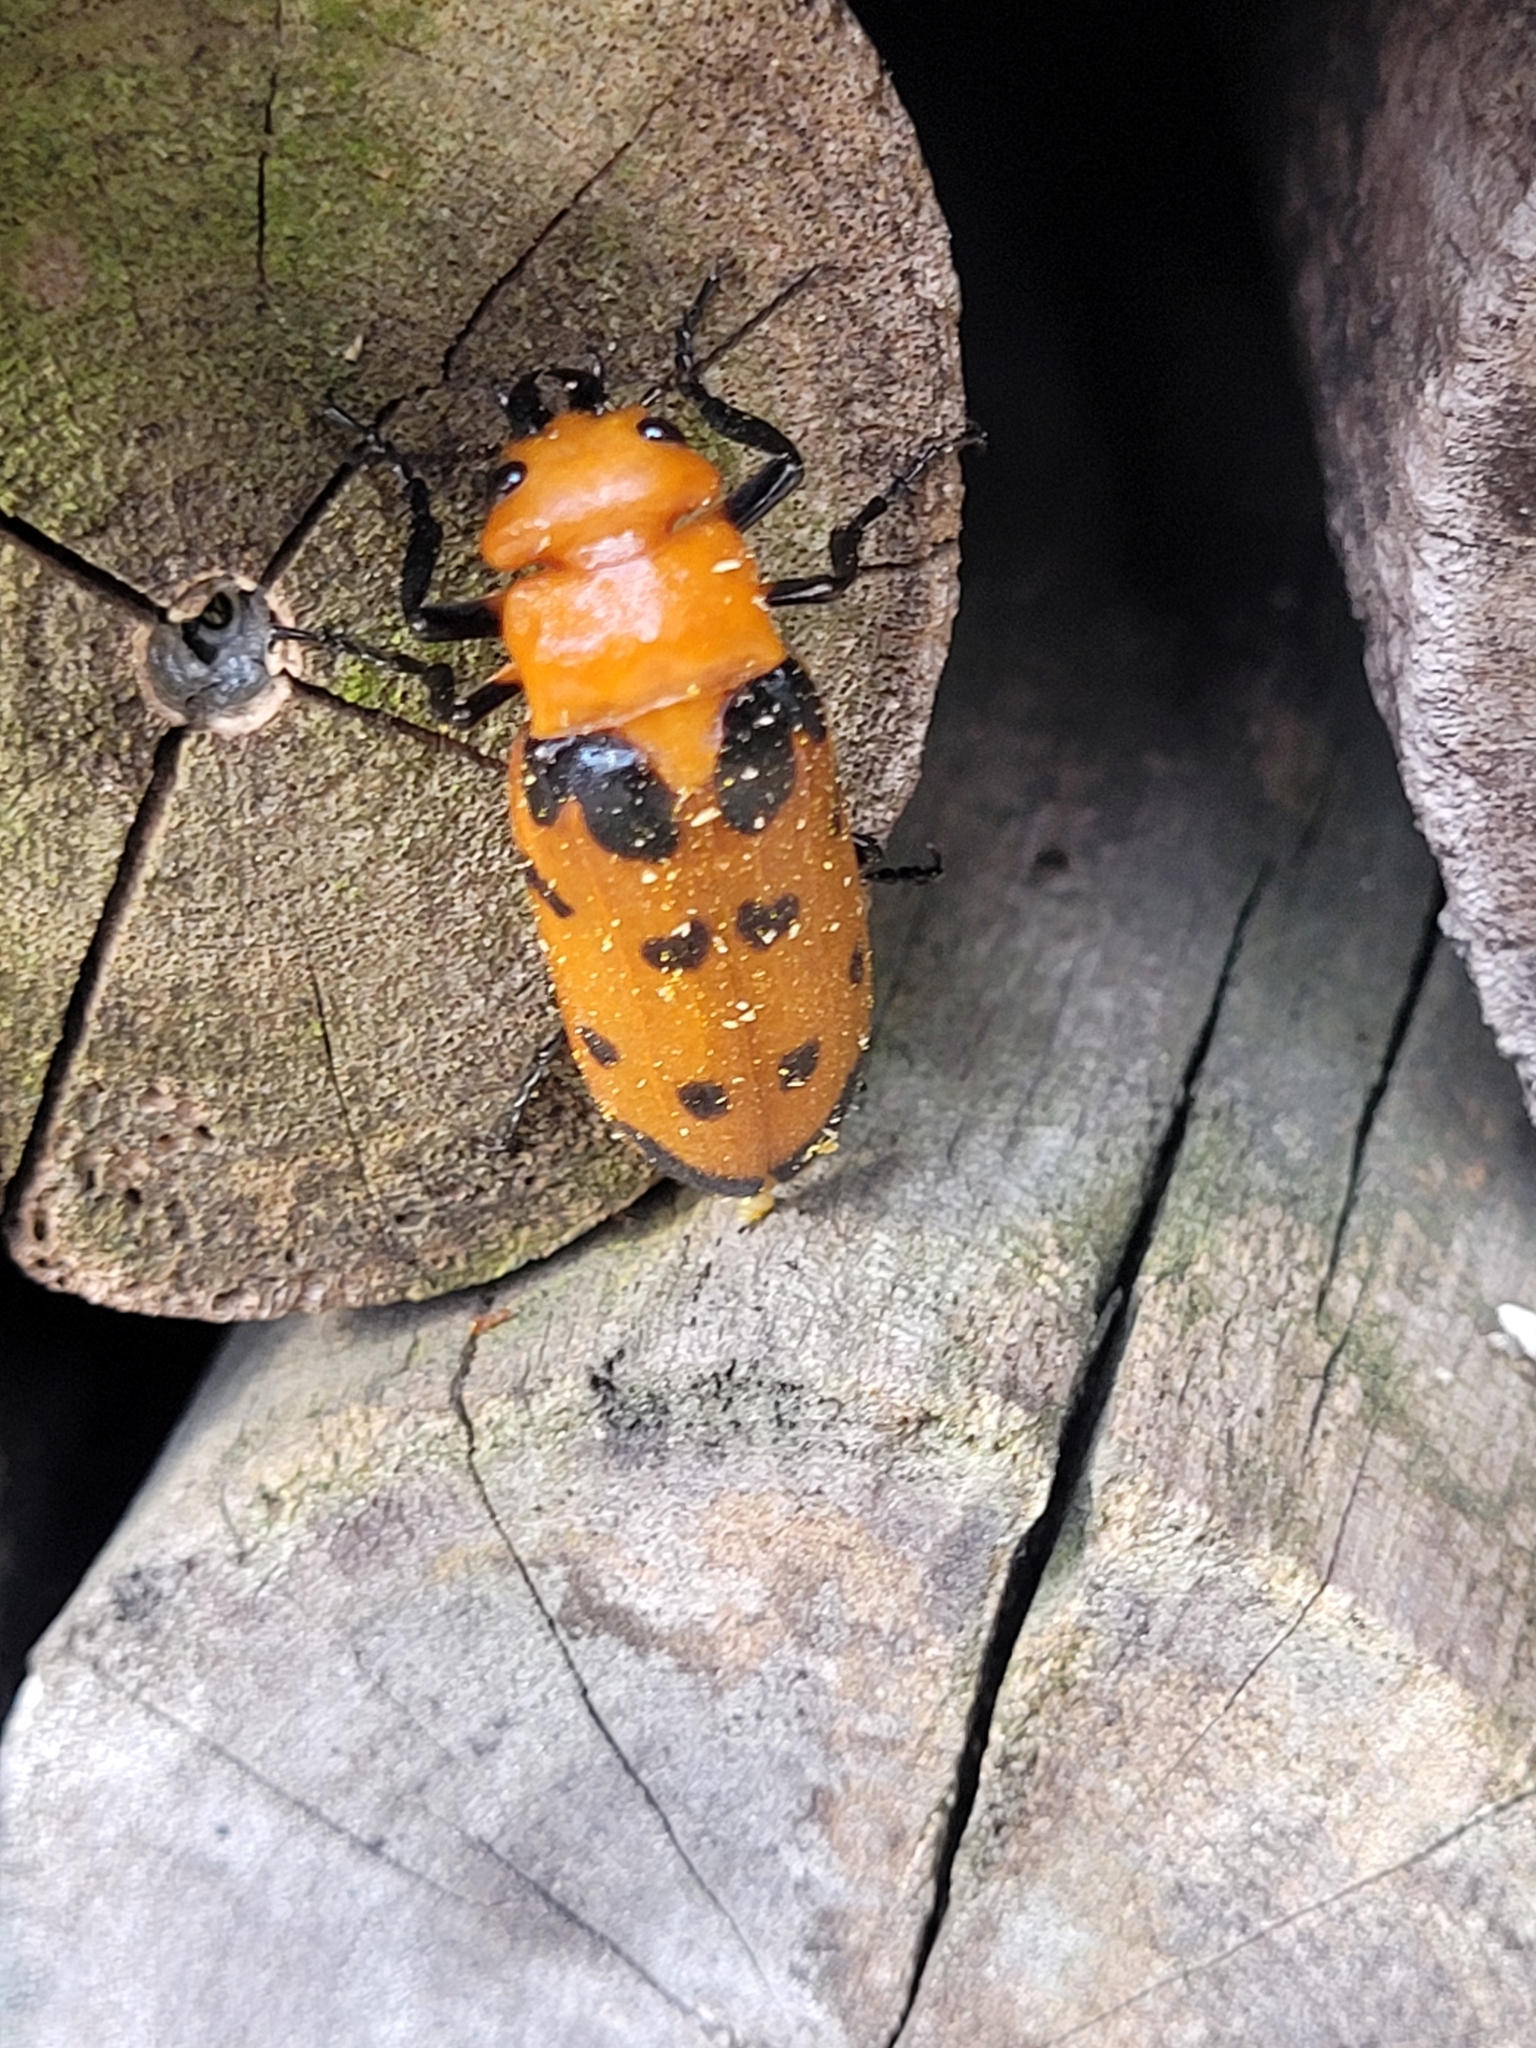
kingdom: Animalia
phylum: Arthropoda
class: Insecta
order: Coleoptera
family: Meloidae
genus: Cissites
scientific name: Cissites maculata
